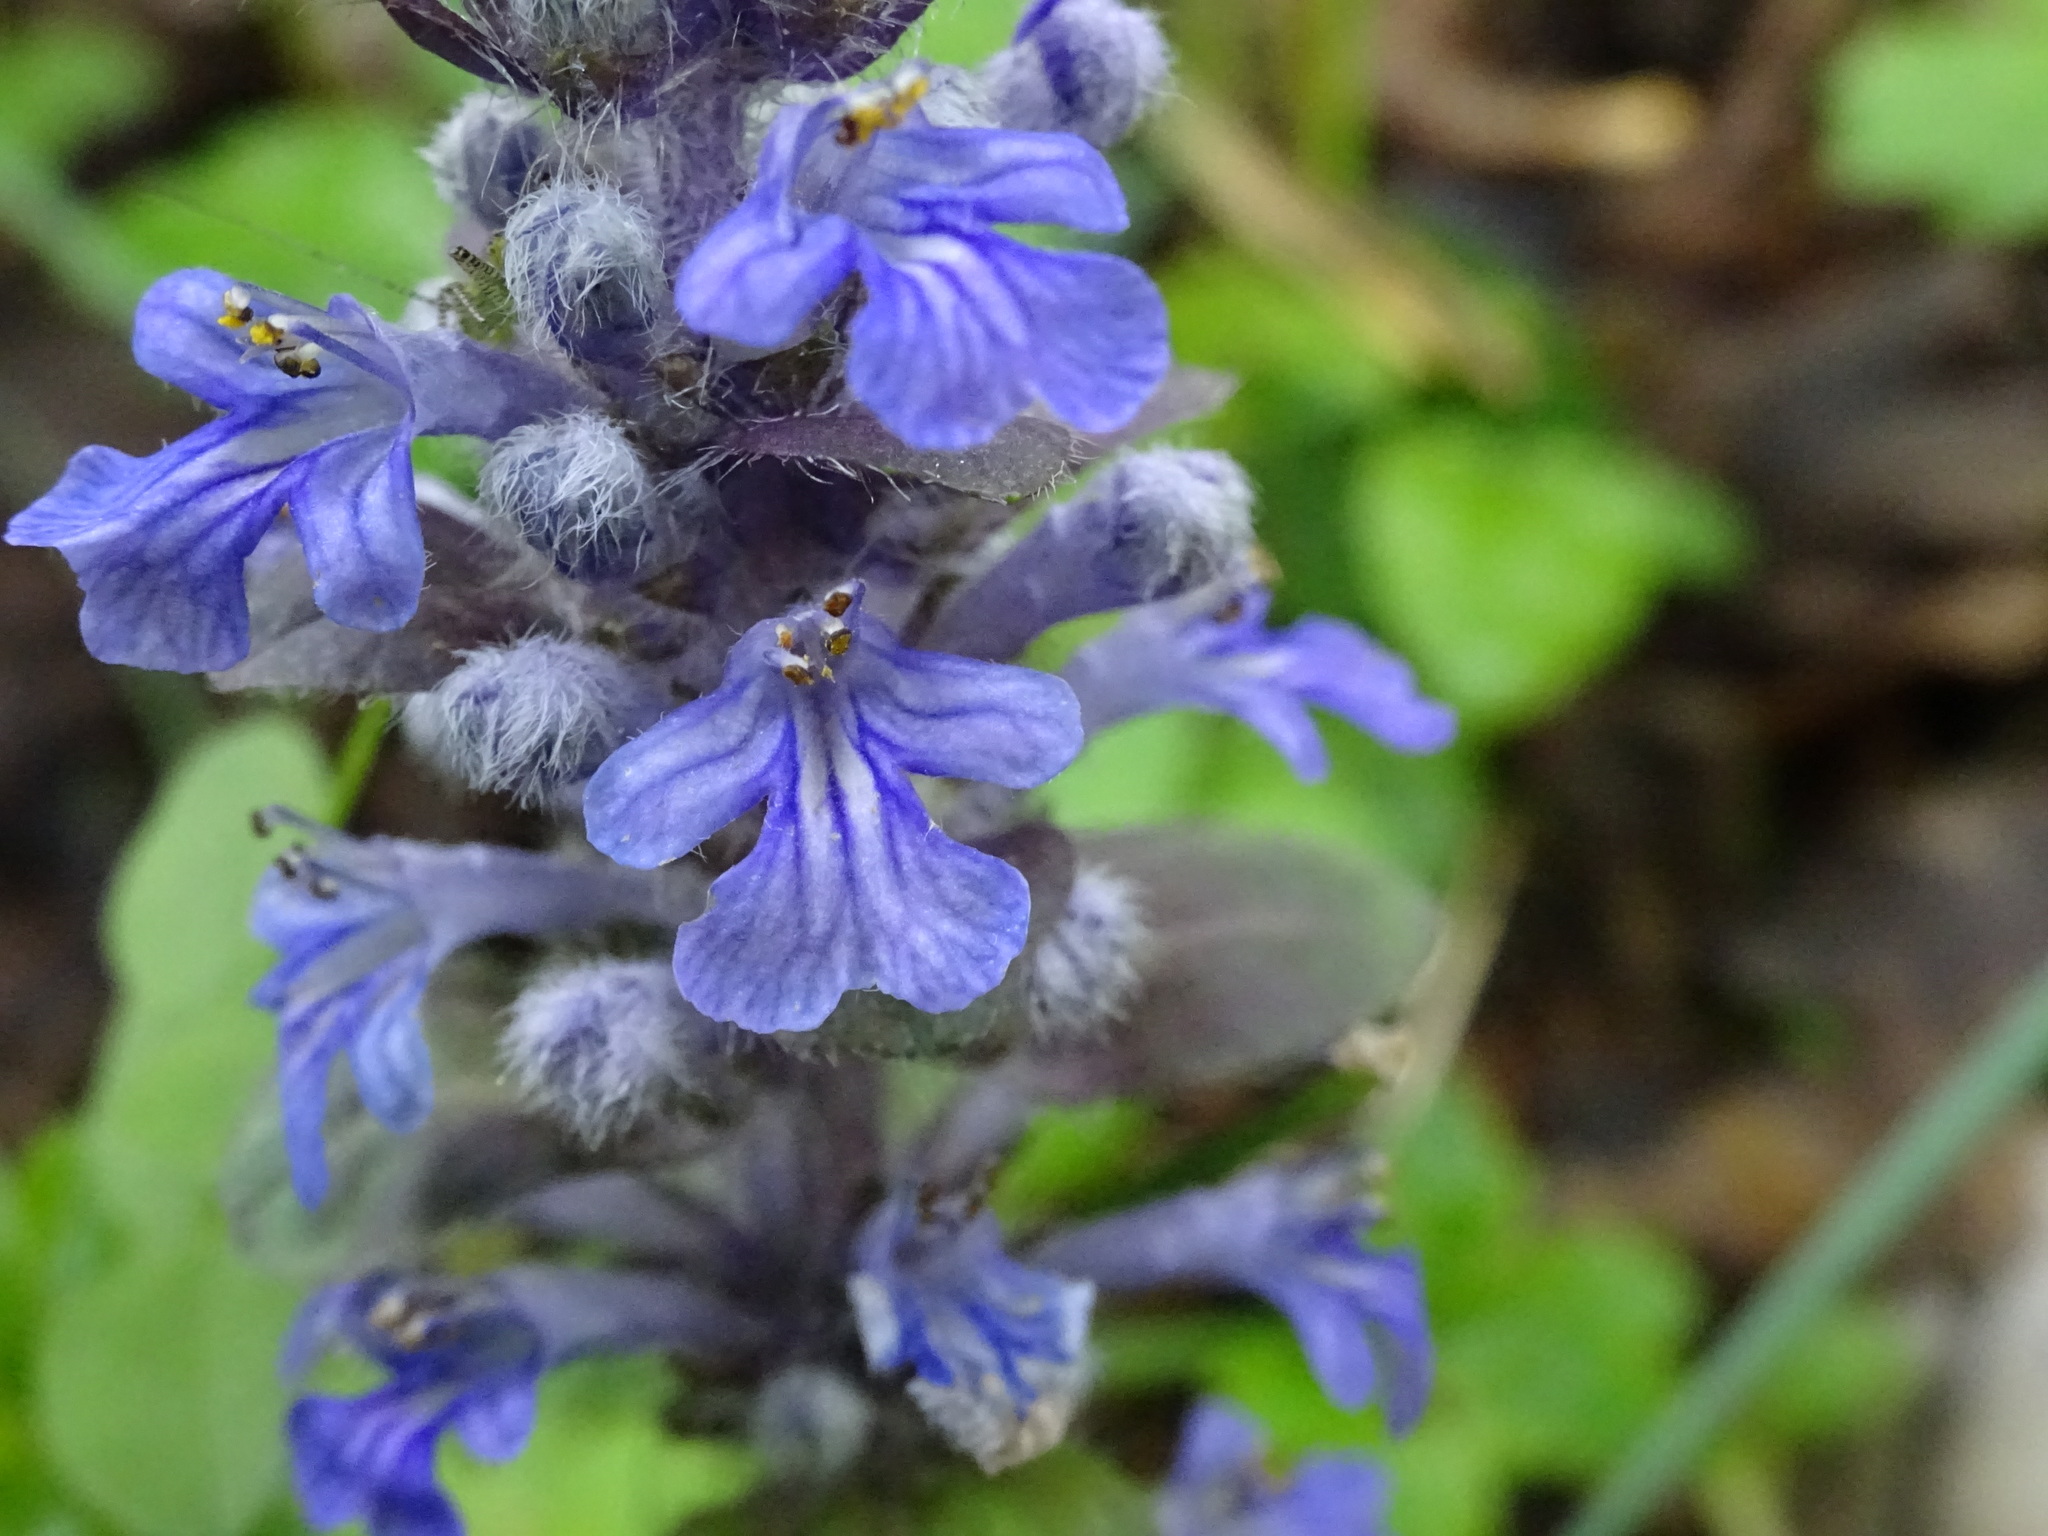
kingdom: Plantae
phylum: Tracheophyta
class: Magnoliopsida
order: Lamiales
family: Lamiaceae
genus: Ajuga
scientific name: Ajuga reptans
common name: Bugle
